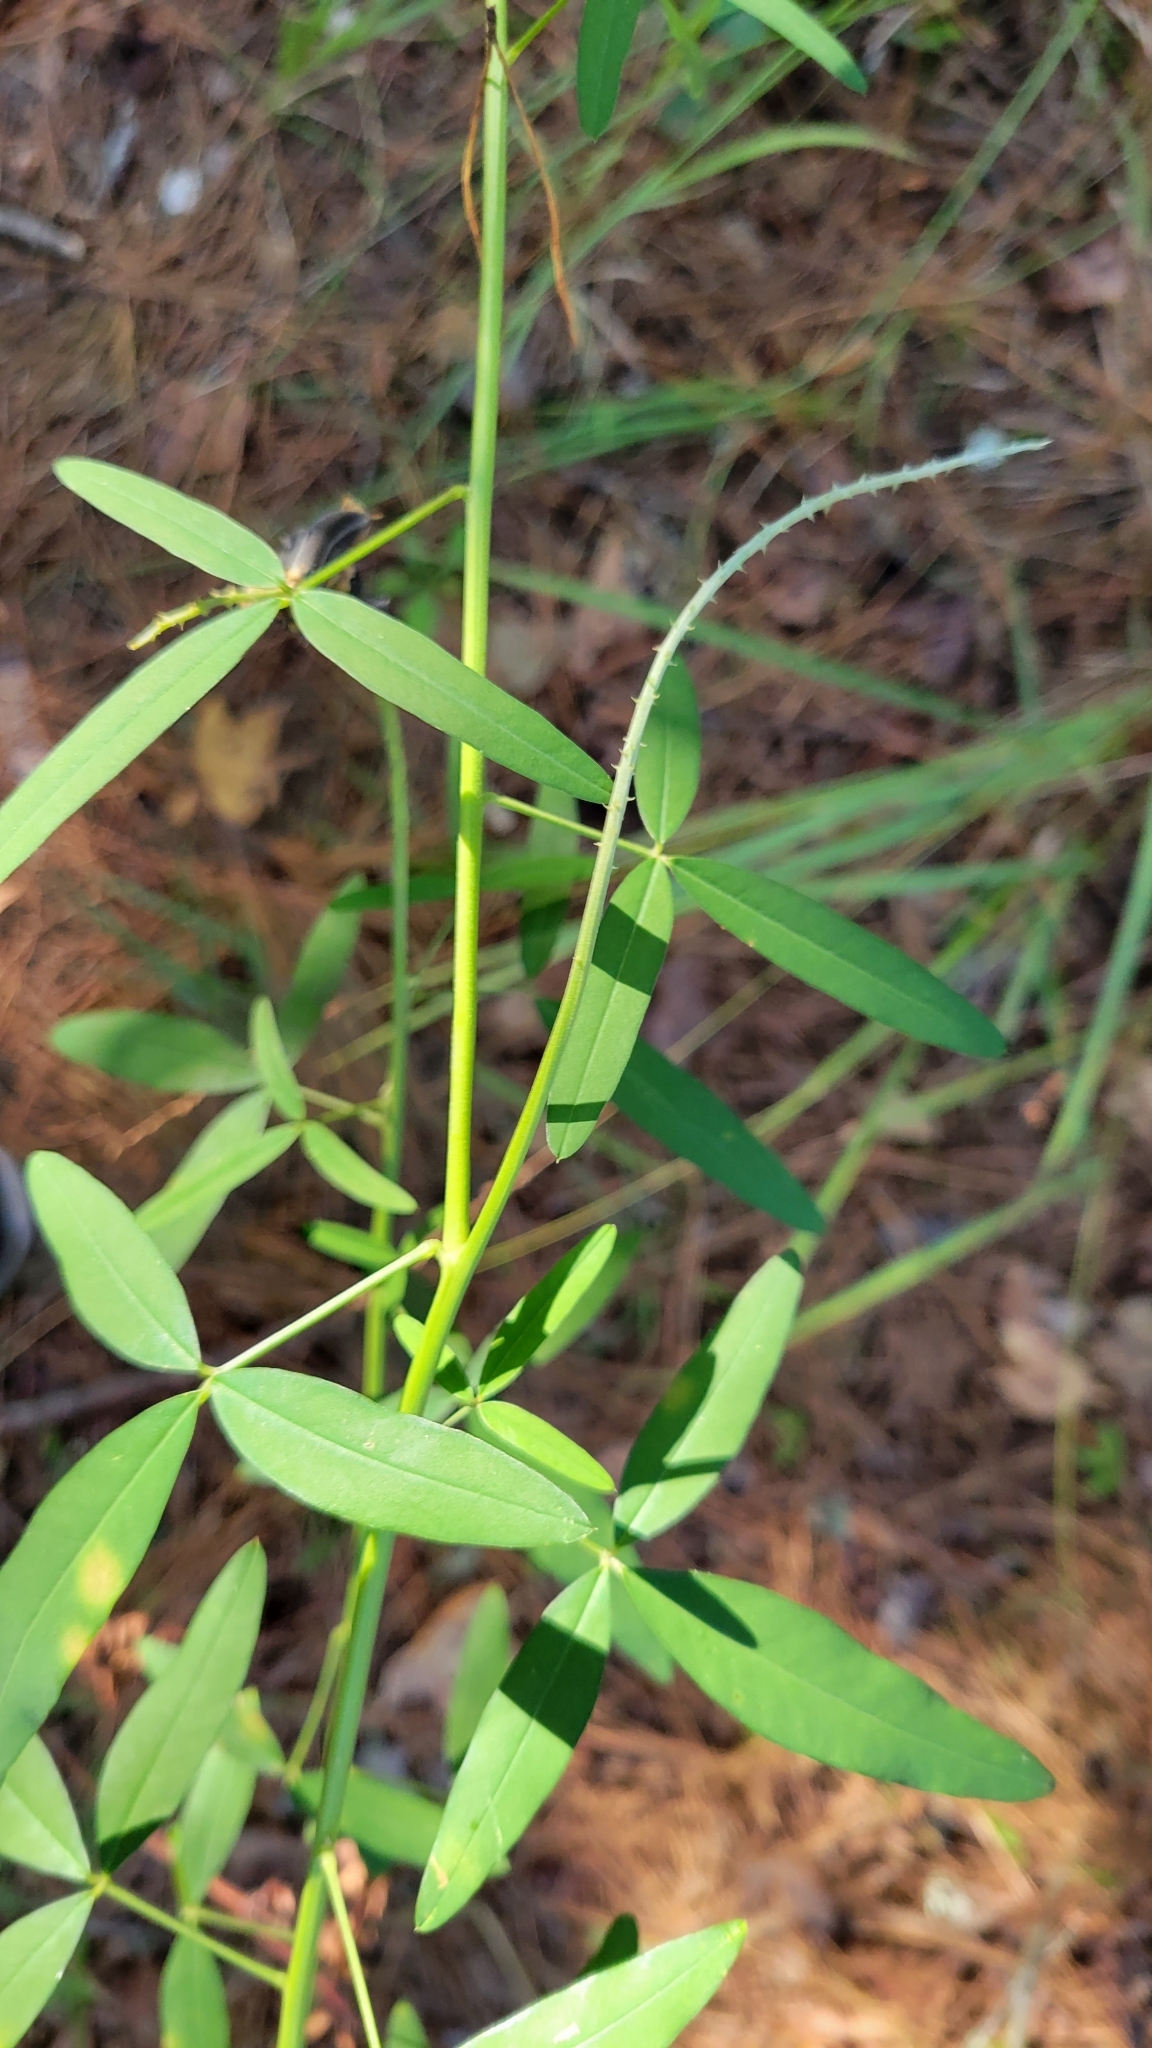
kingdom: Plantae
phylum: Tracheophyta
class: Magnoliopsida
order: Fabales
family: Fabaceae
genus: Crotalaria
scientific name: Crotalaria lanceolata
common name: Lanceleaf rattlebox
